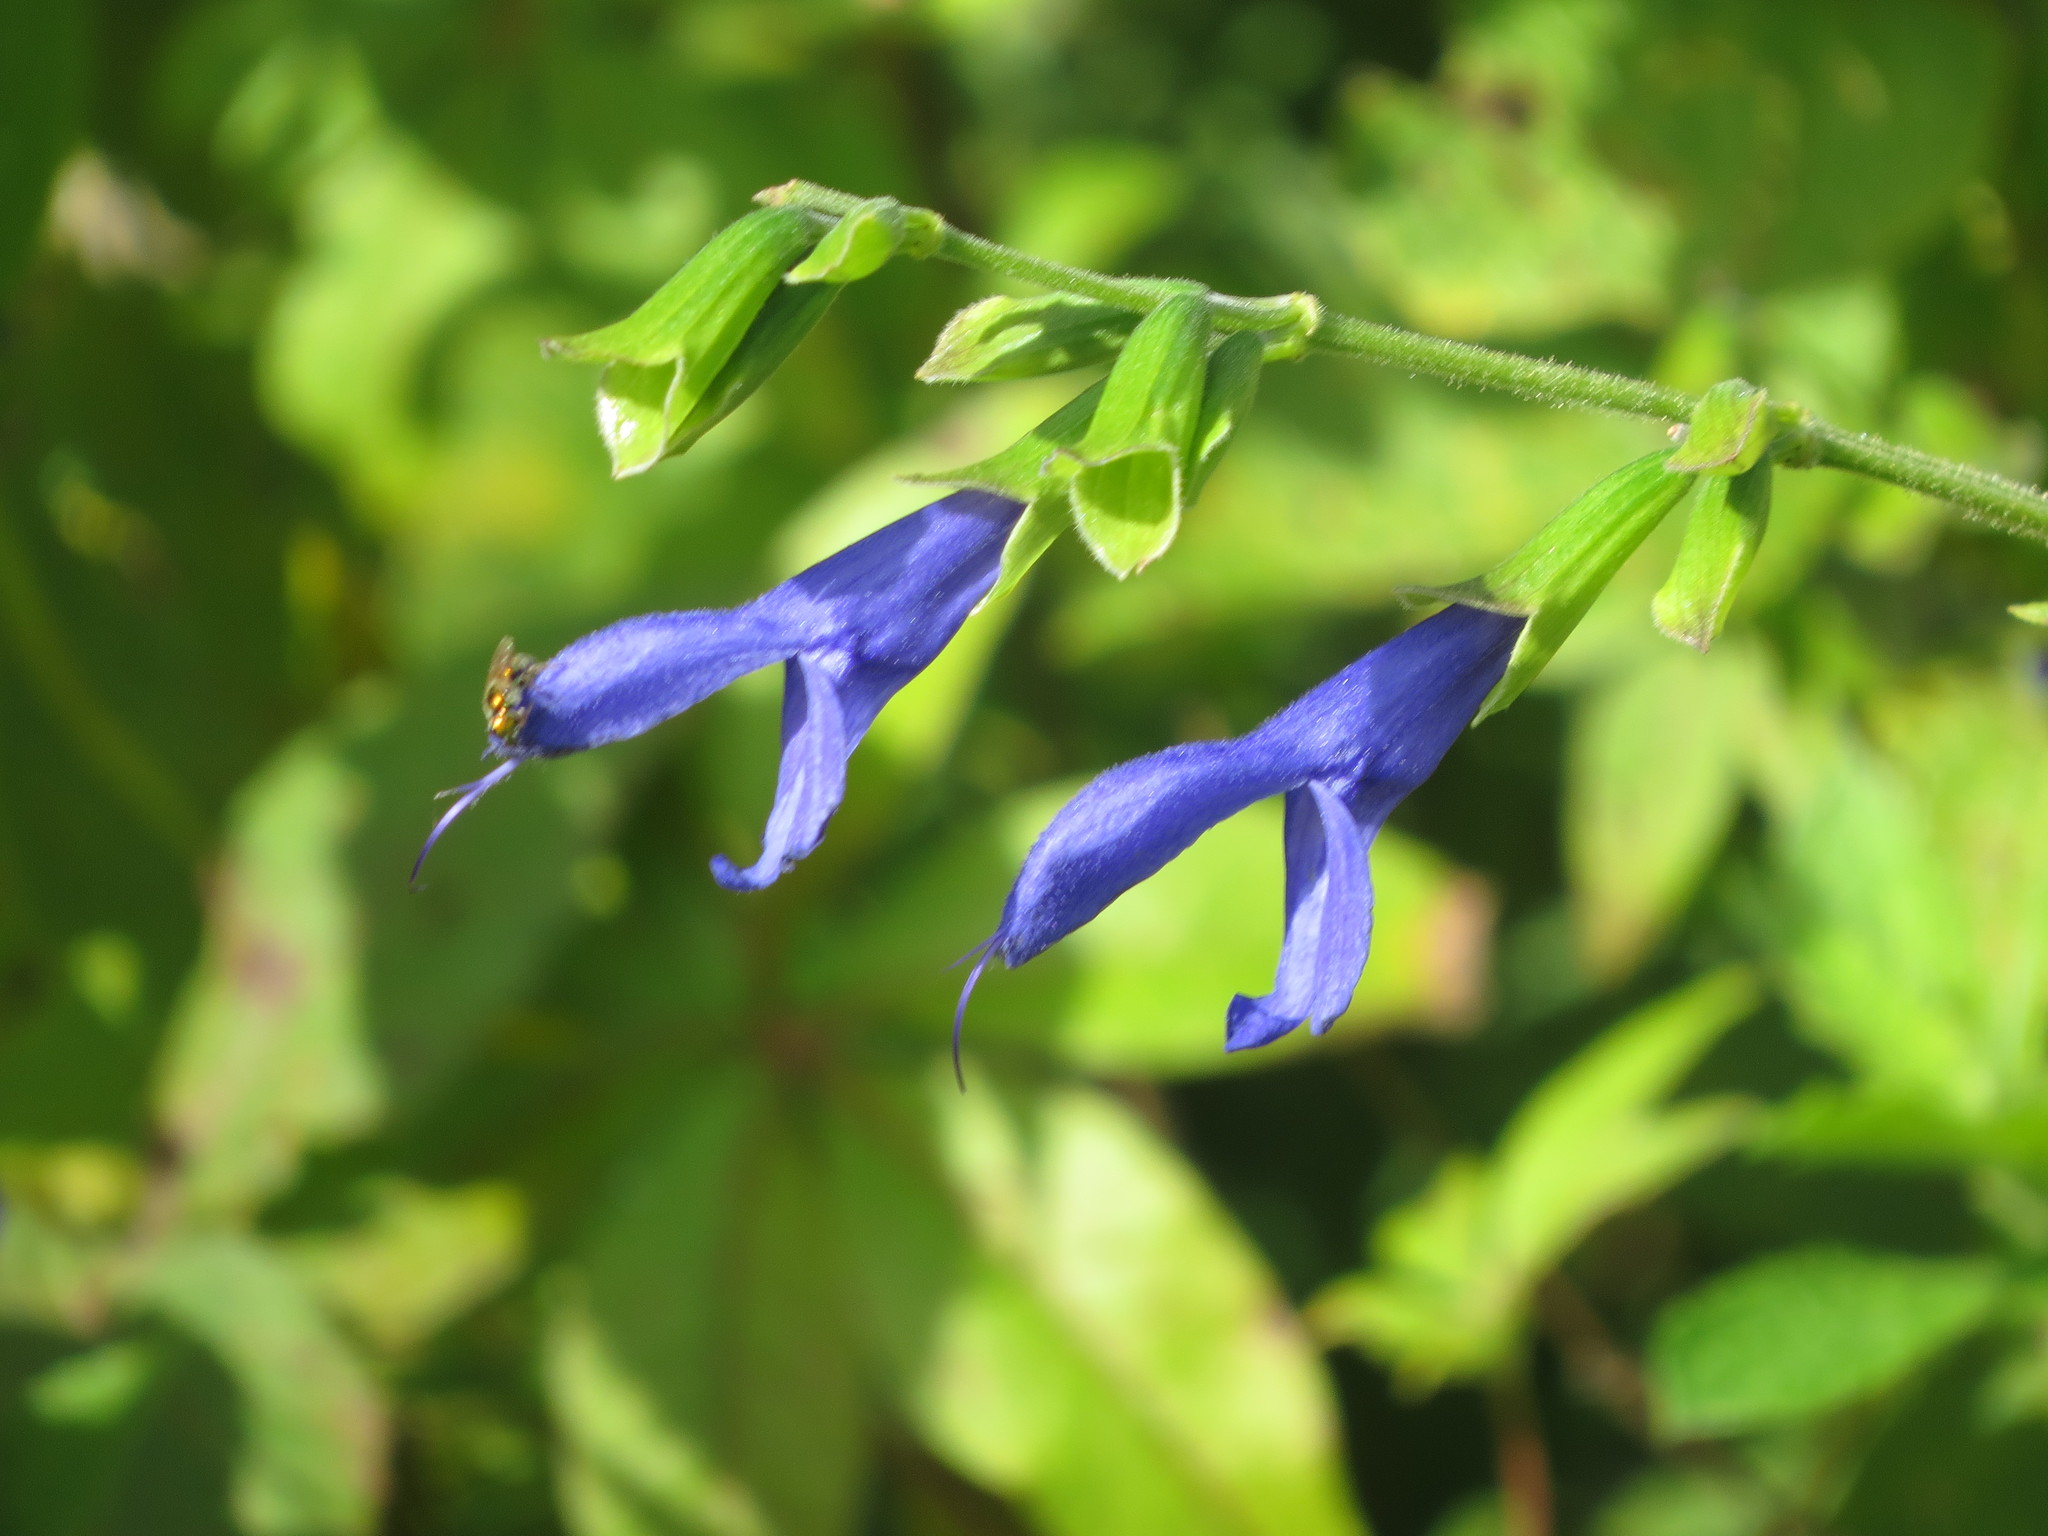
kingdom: Plantae
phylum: Tracheophyta
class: Magnoliopsida
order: Lamiales
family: Lamiaceae
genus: Salvia
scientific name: Salvia guaranitica
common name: Anise-scented sage
